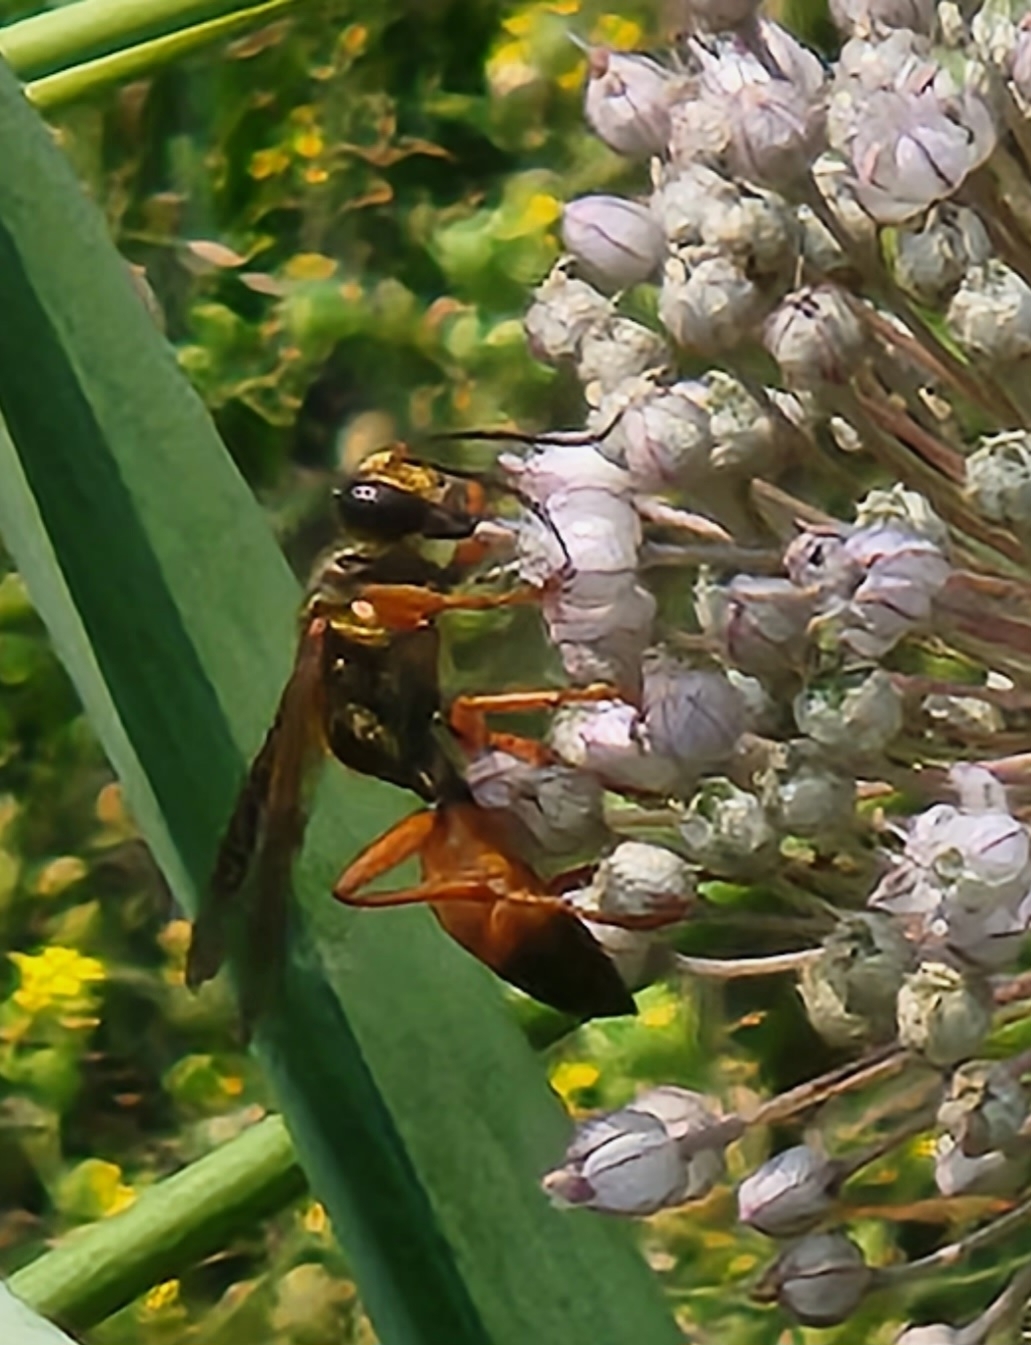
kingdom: Animalia
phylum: Arthropoda
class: Insecta
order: Hymenoptera
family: Sphecidae
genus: Sphex
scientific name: Sphex ichneumoneus
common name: Great golden digger wasp
